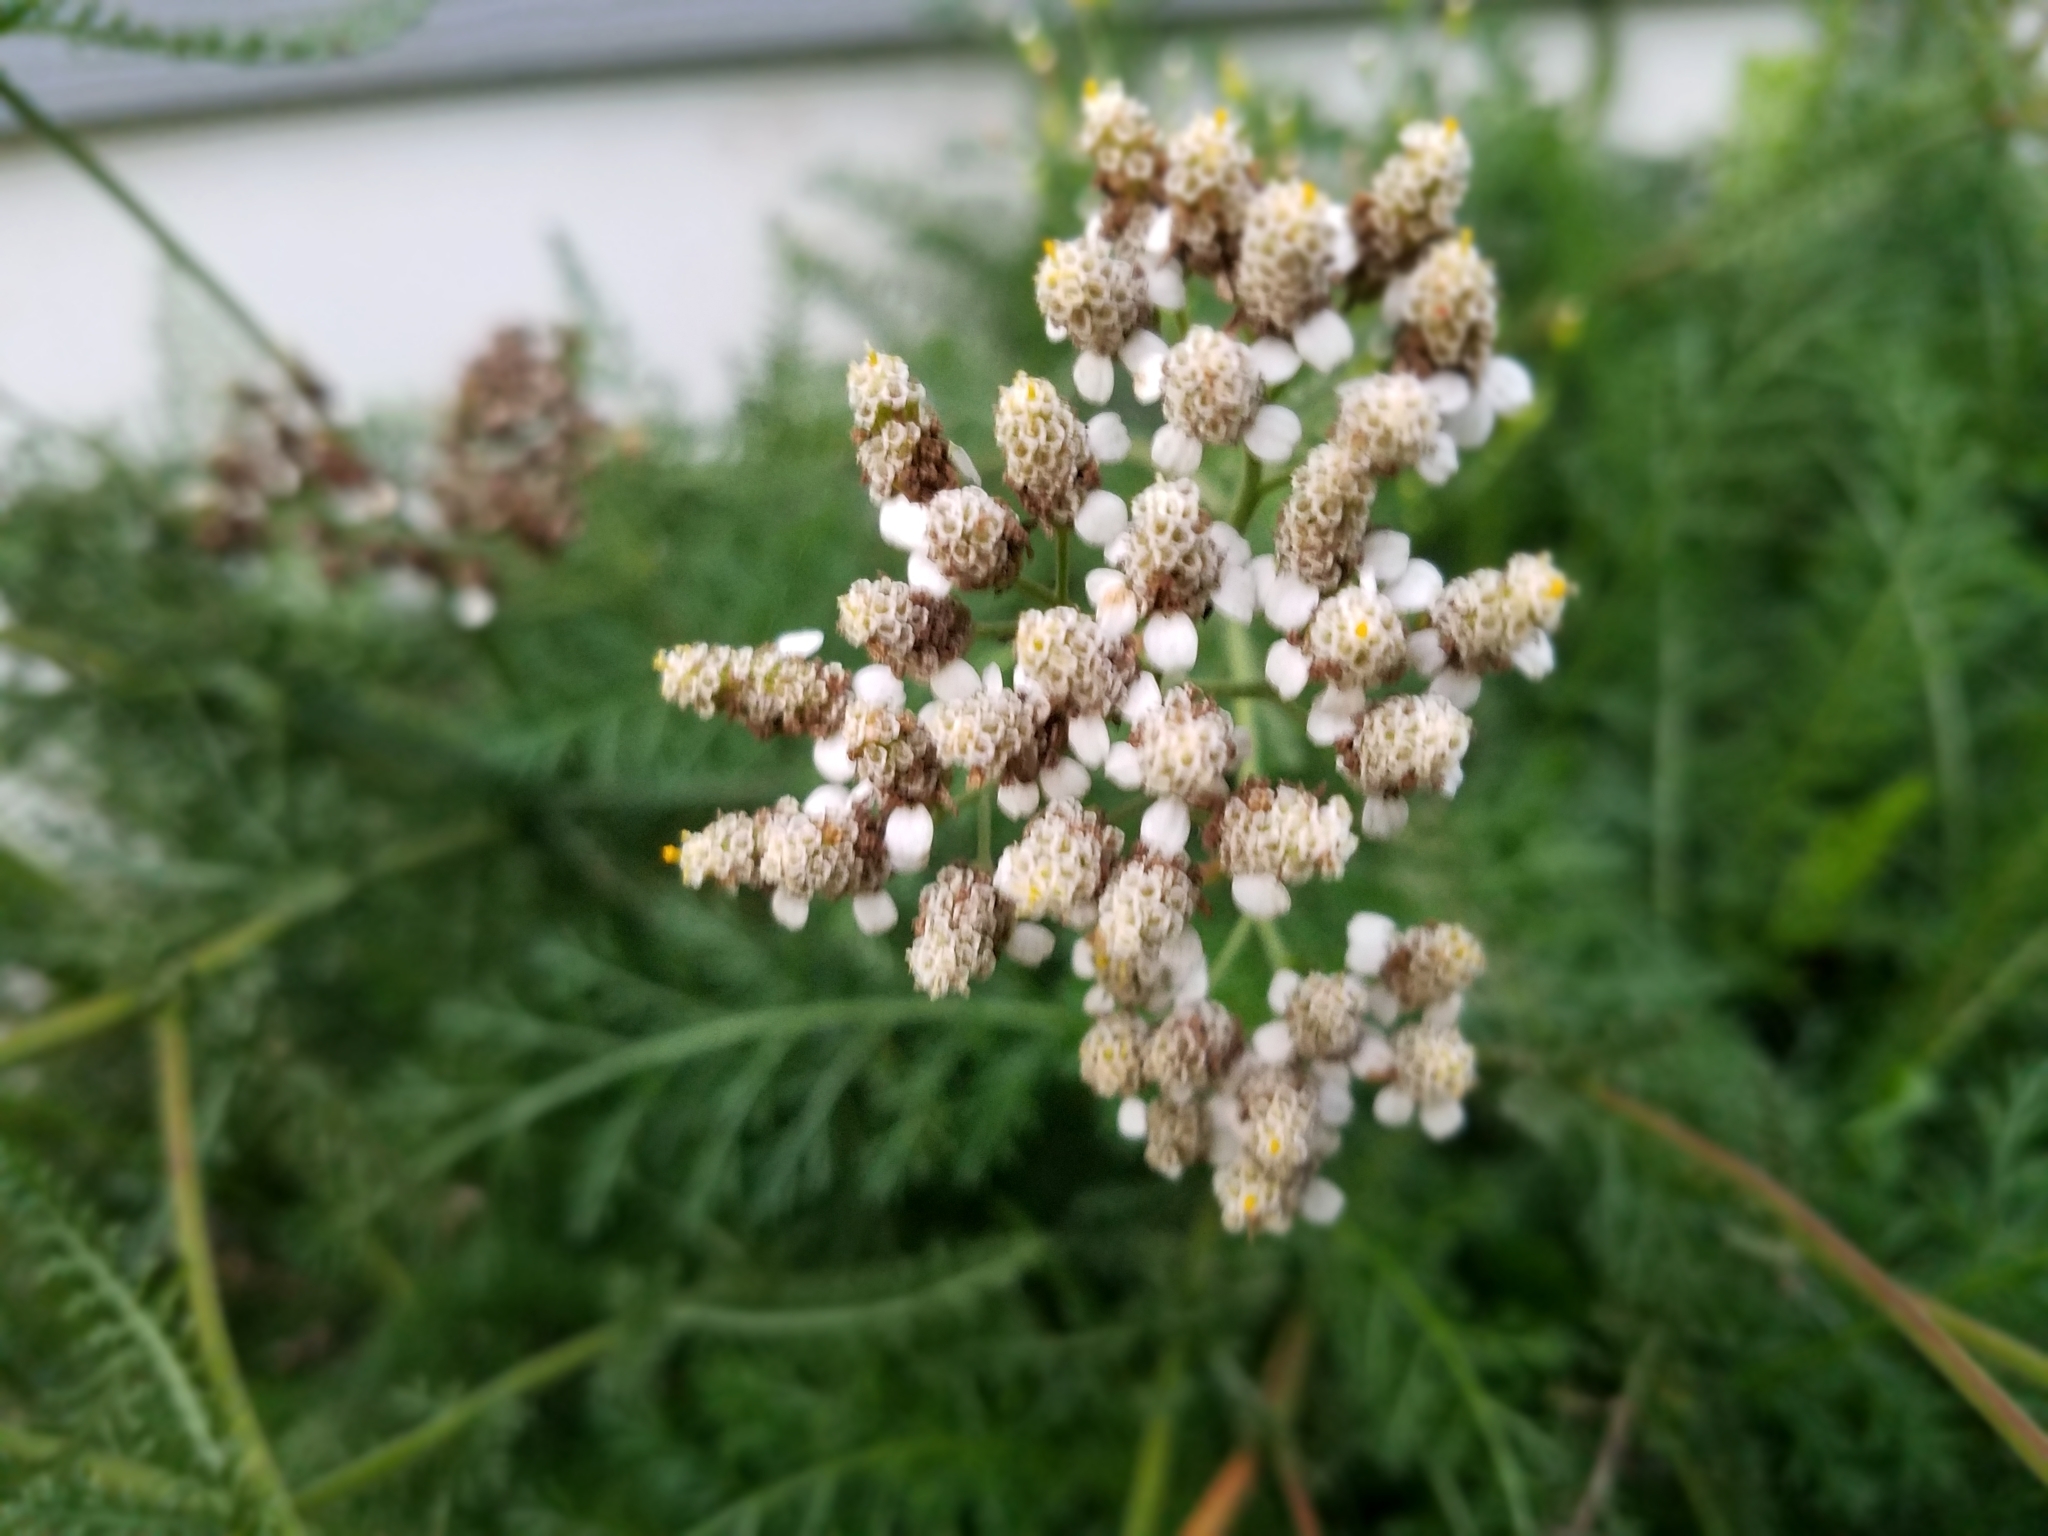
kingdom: Plantae
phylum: Tracheophyta
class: Magnoliopsida
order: Asterales
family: Asteraceae
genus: Achillea
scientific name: Achillea millefolium
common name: Yarrow
